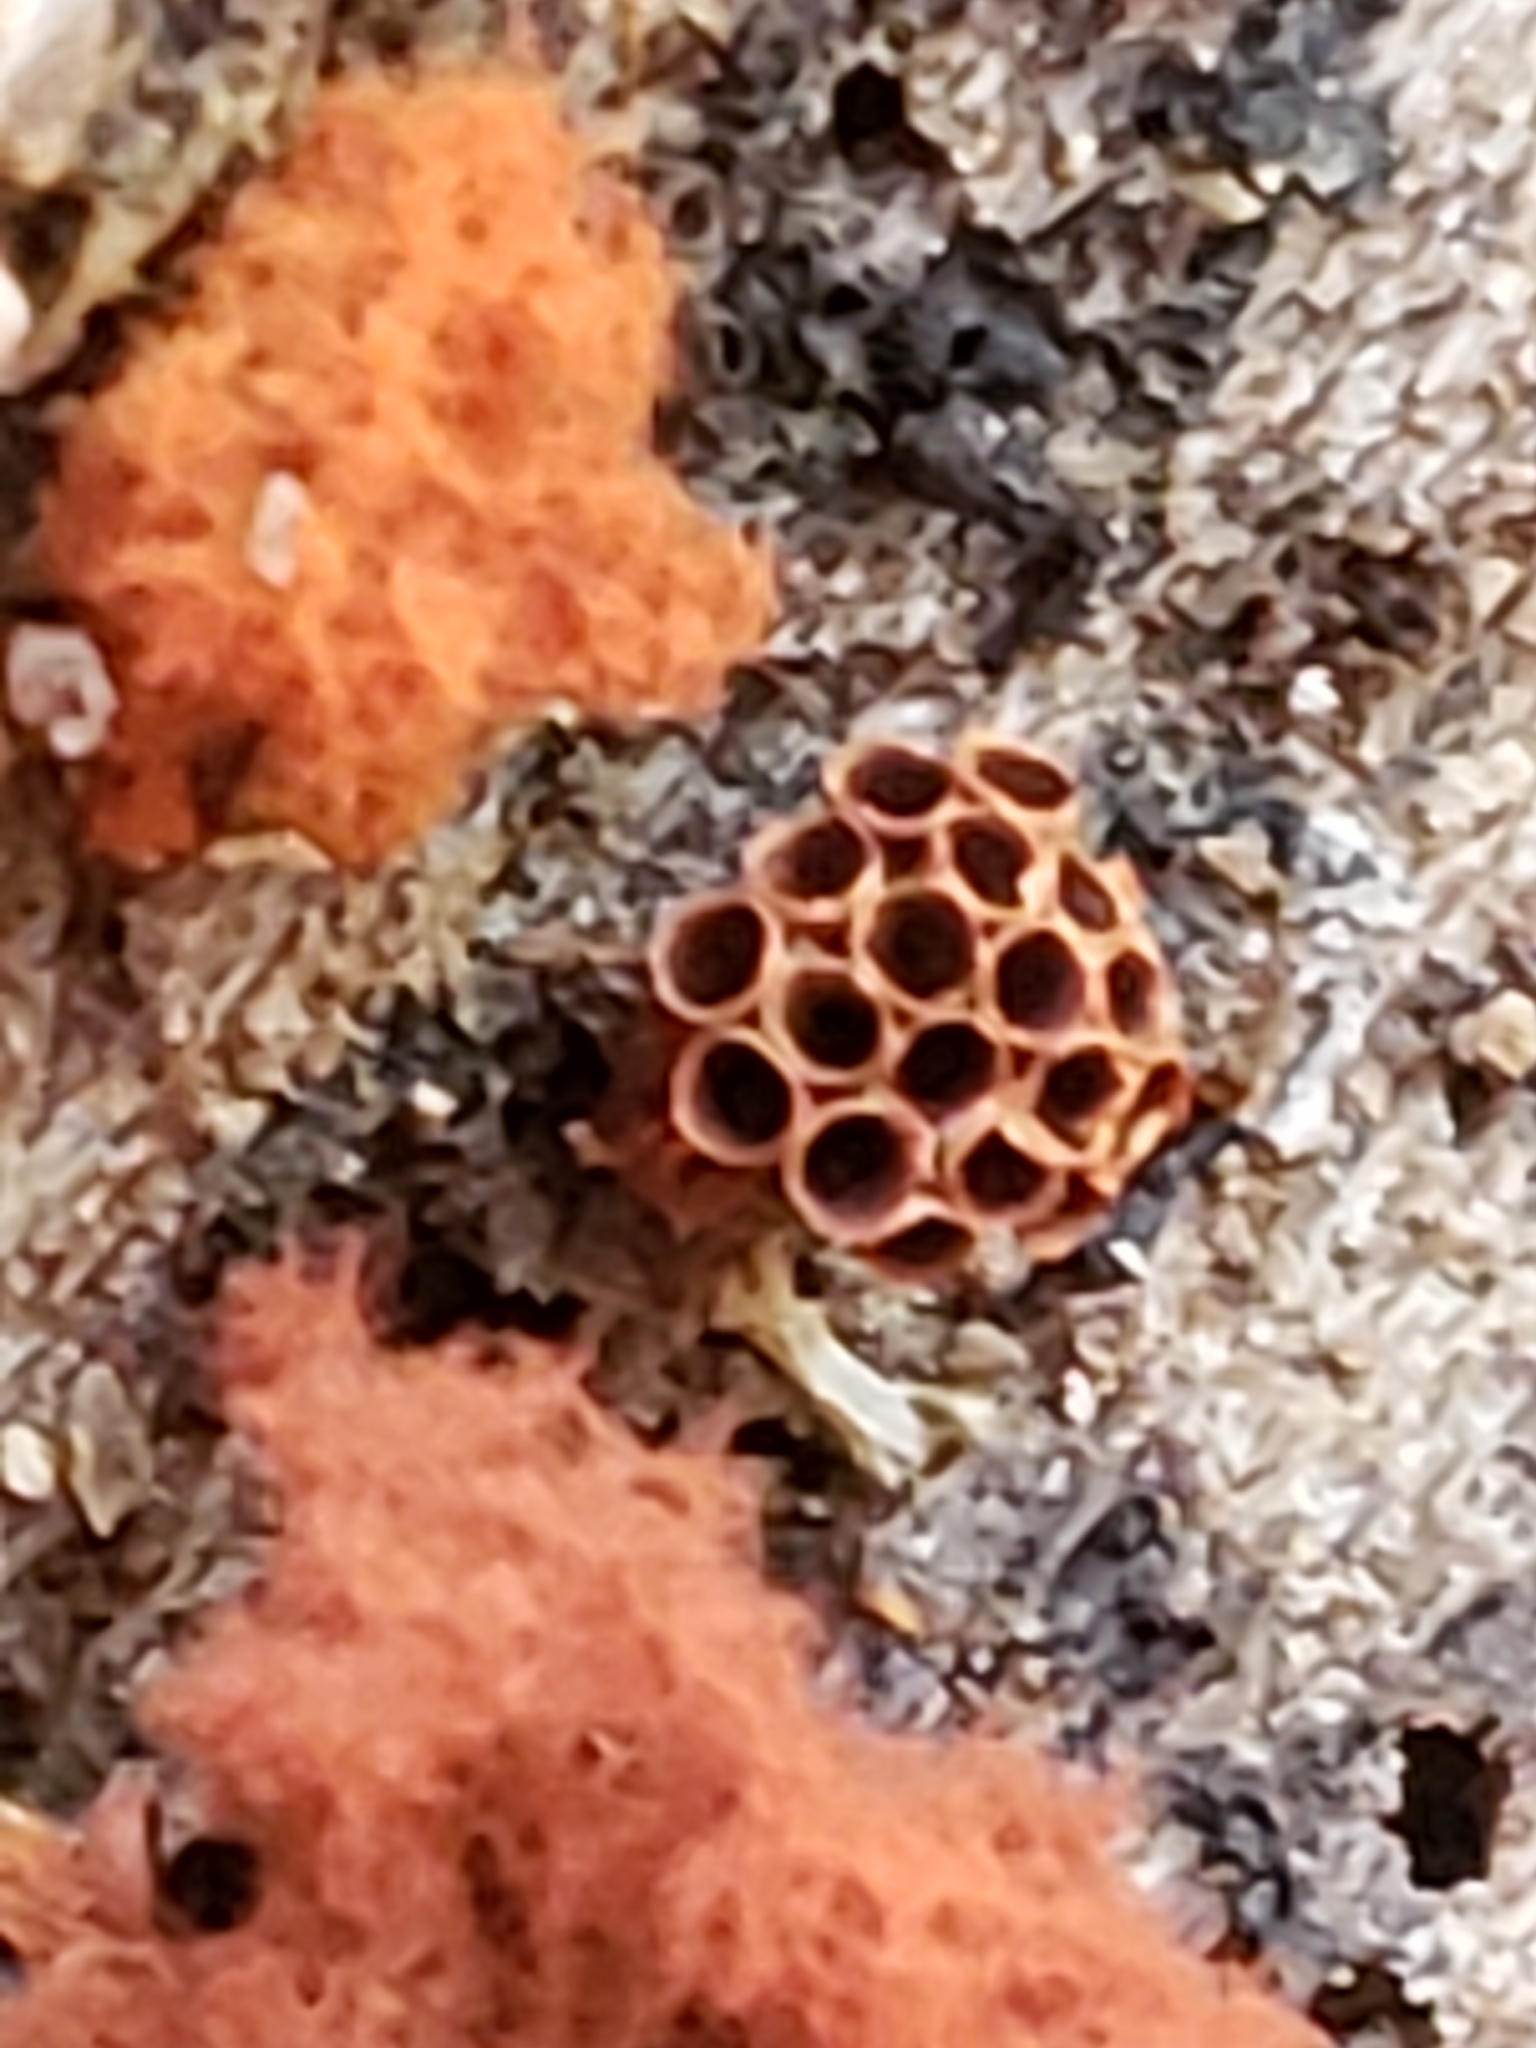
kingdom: Protozoa
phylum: Mycetozoa
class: Myxomycetes
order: Trichiales
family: Trichiaceae
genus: Metatrichia
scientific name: Metatrichia vesparia
